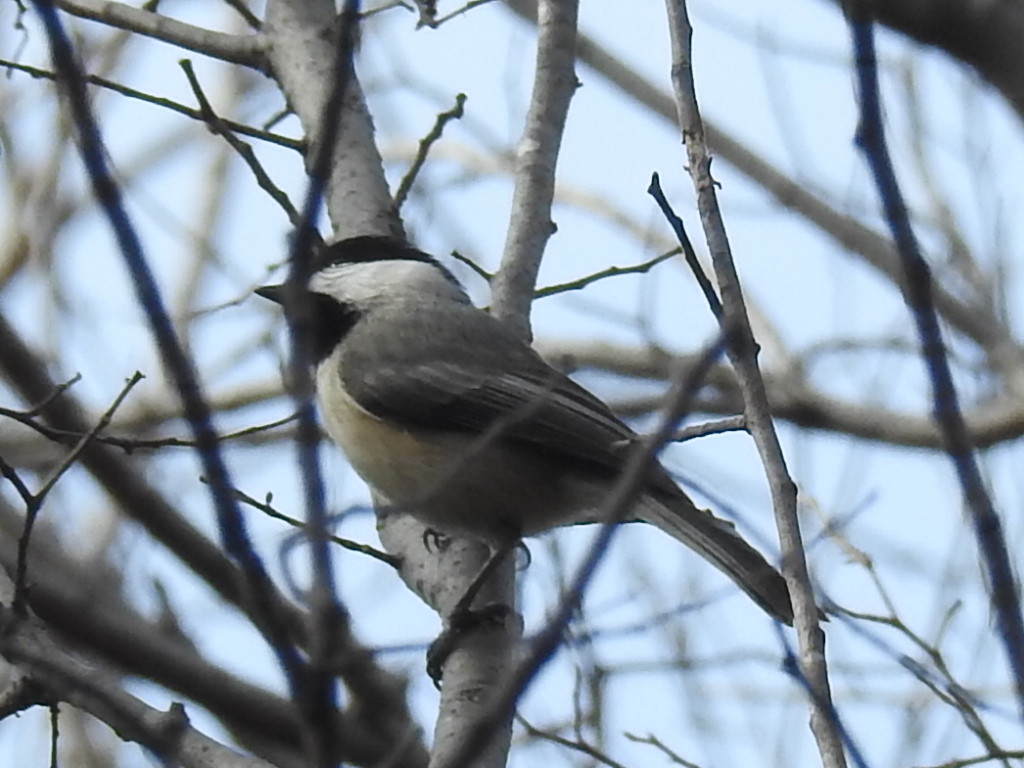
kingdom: Animalia
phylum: Chordata
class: Aves
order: Passeriformes
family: Paridae
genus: Poecile
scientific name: Poecile carolinensis
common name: Carolina chickadee
